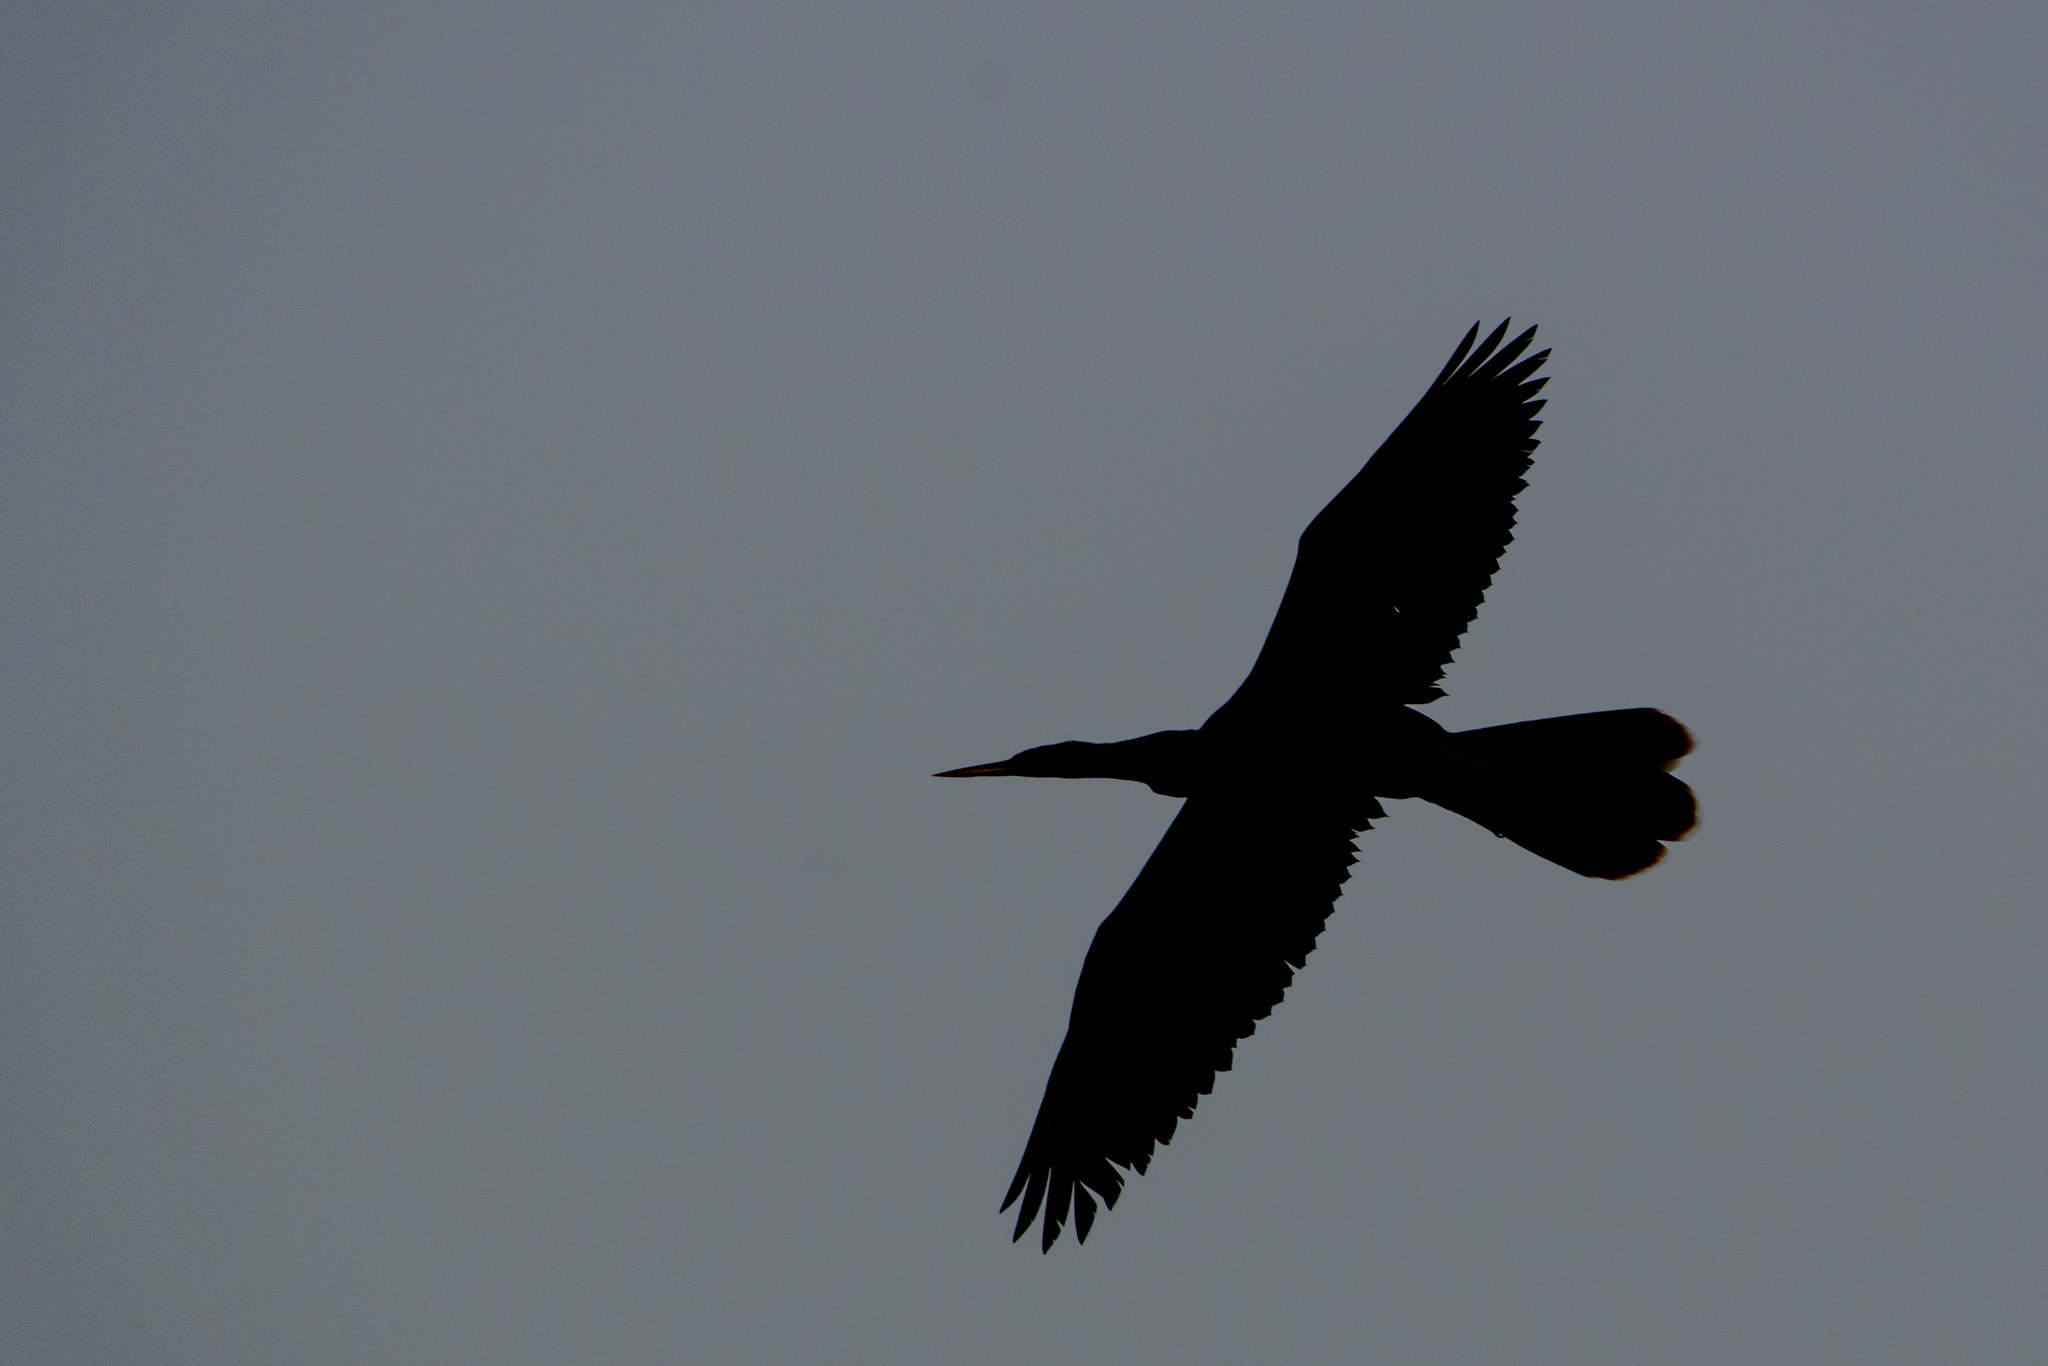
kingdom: Animalia
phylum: Chordata
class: Aves
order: Suliformes
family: Anhingidae
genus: Anhinga
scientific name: Anhinga anhinga
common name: Anhinga
